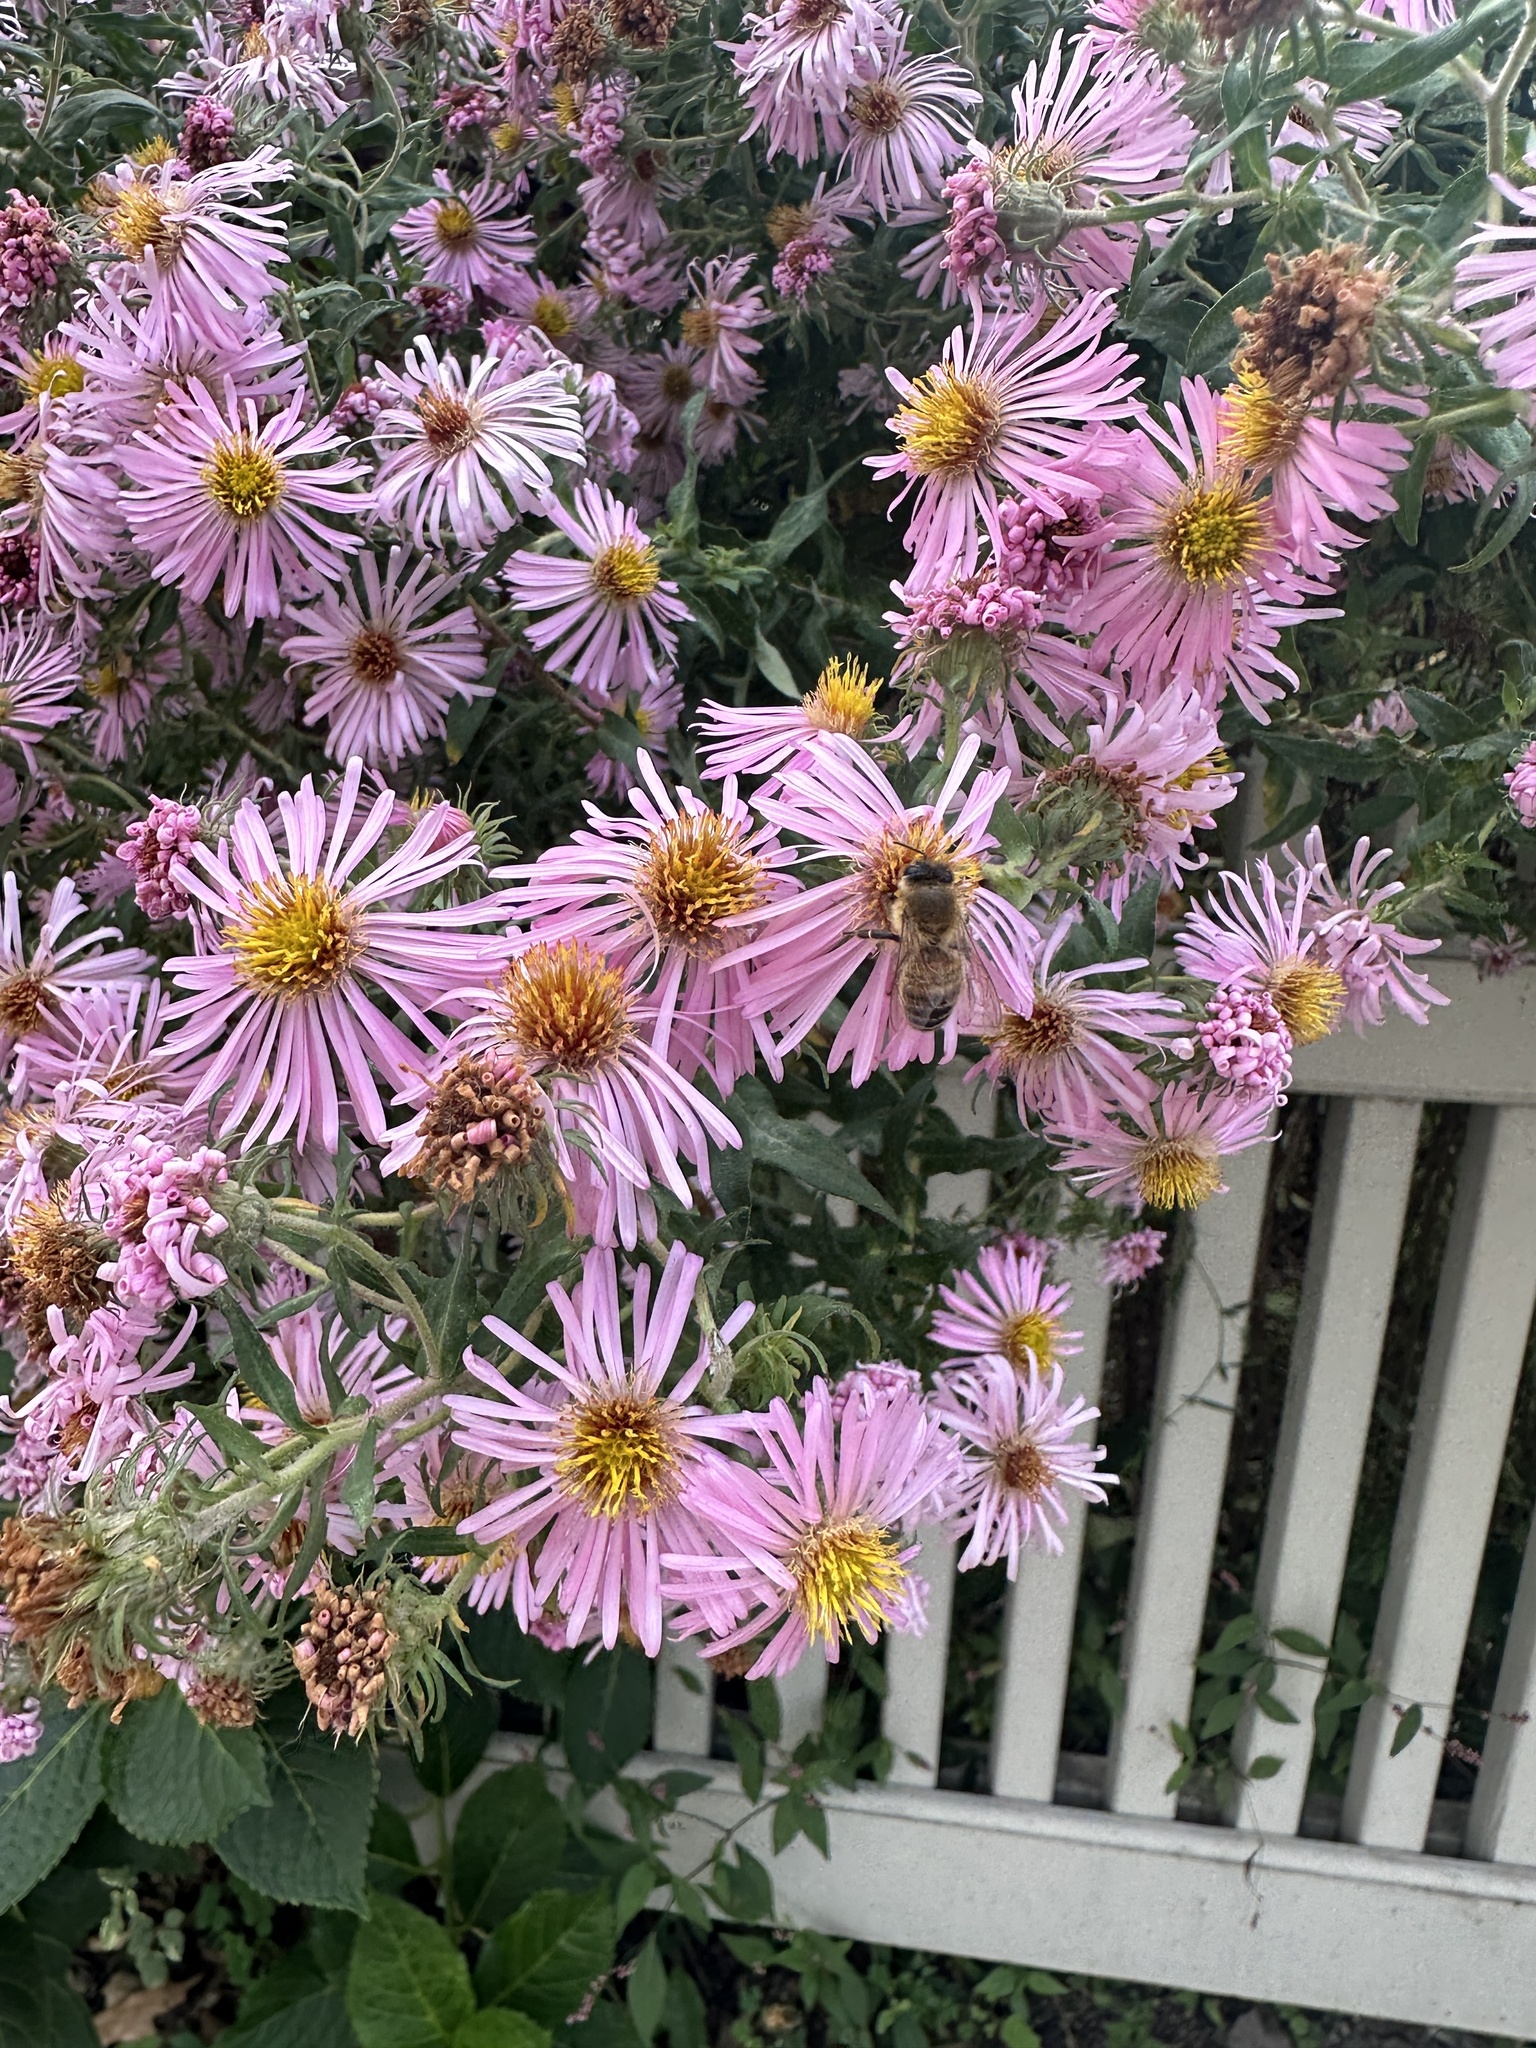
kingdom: Animalia
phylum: Arthropoda
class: Insecta
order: Hymenoptera
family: Apidae
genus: Apis
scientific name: Apis mellifera
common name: Honey bee
